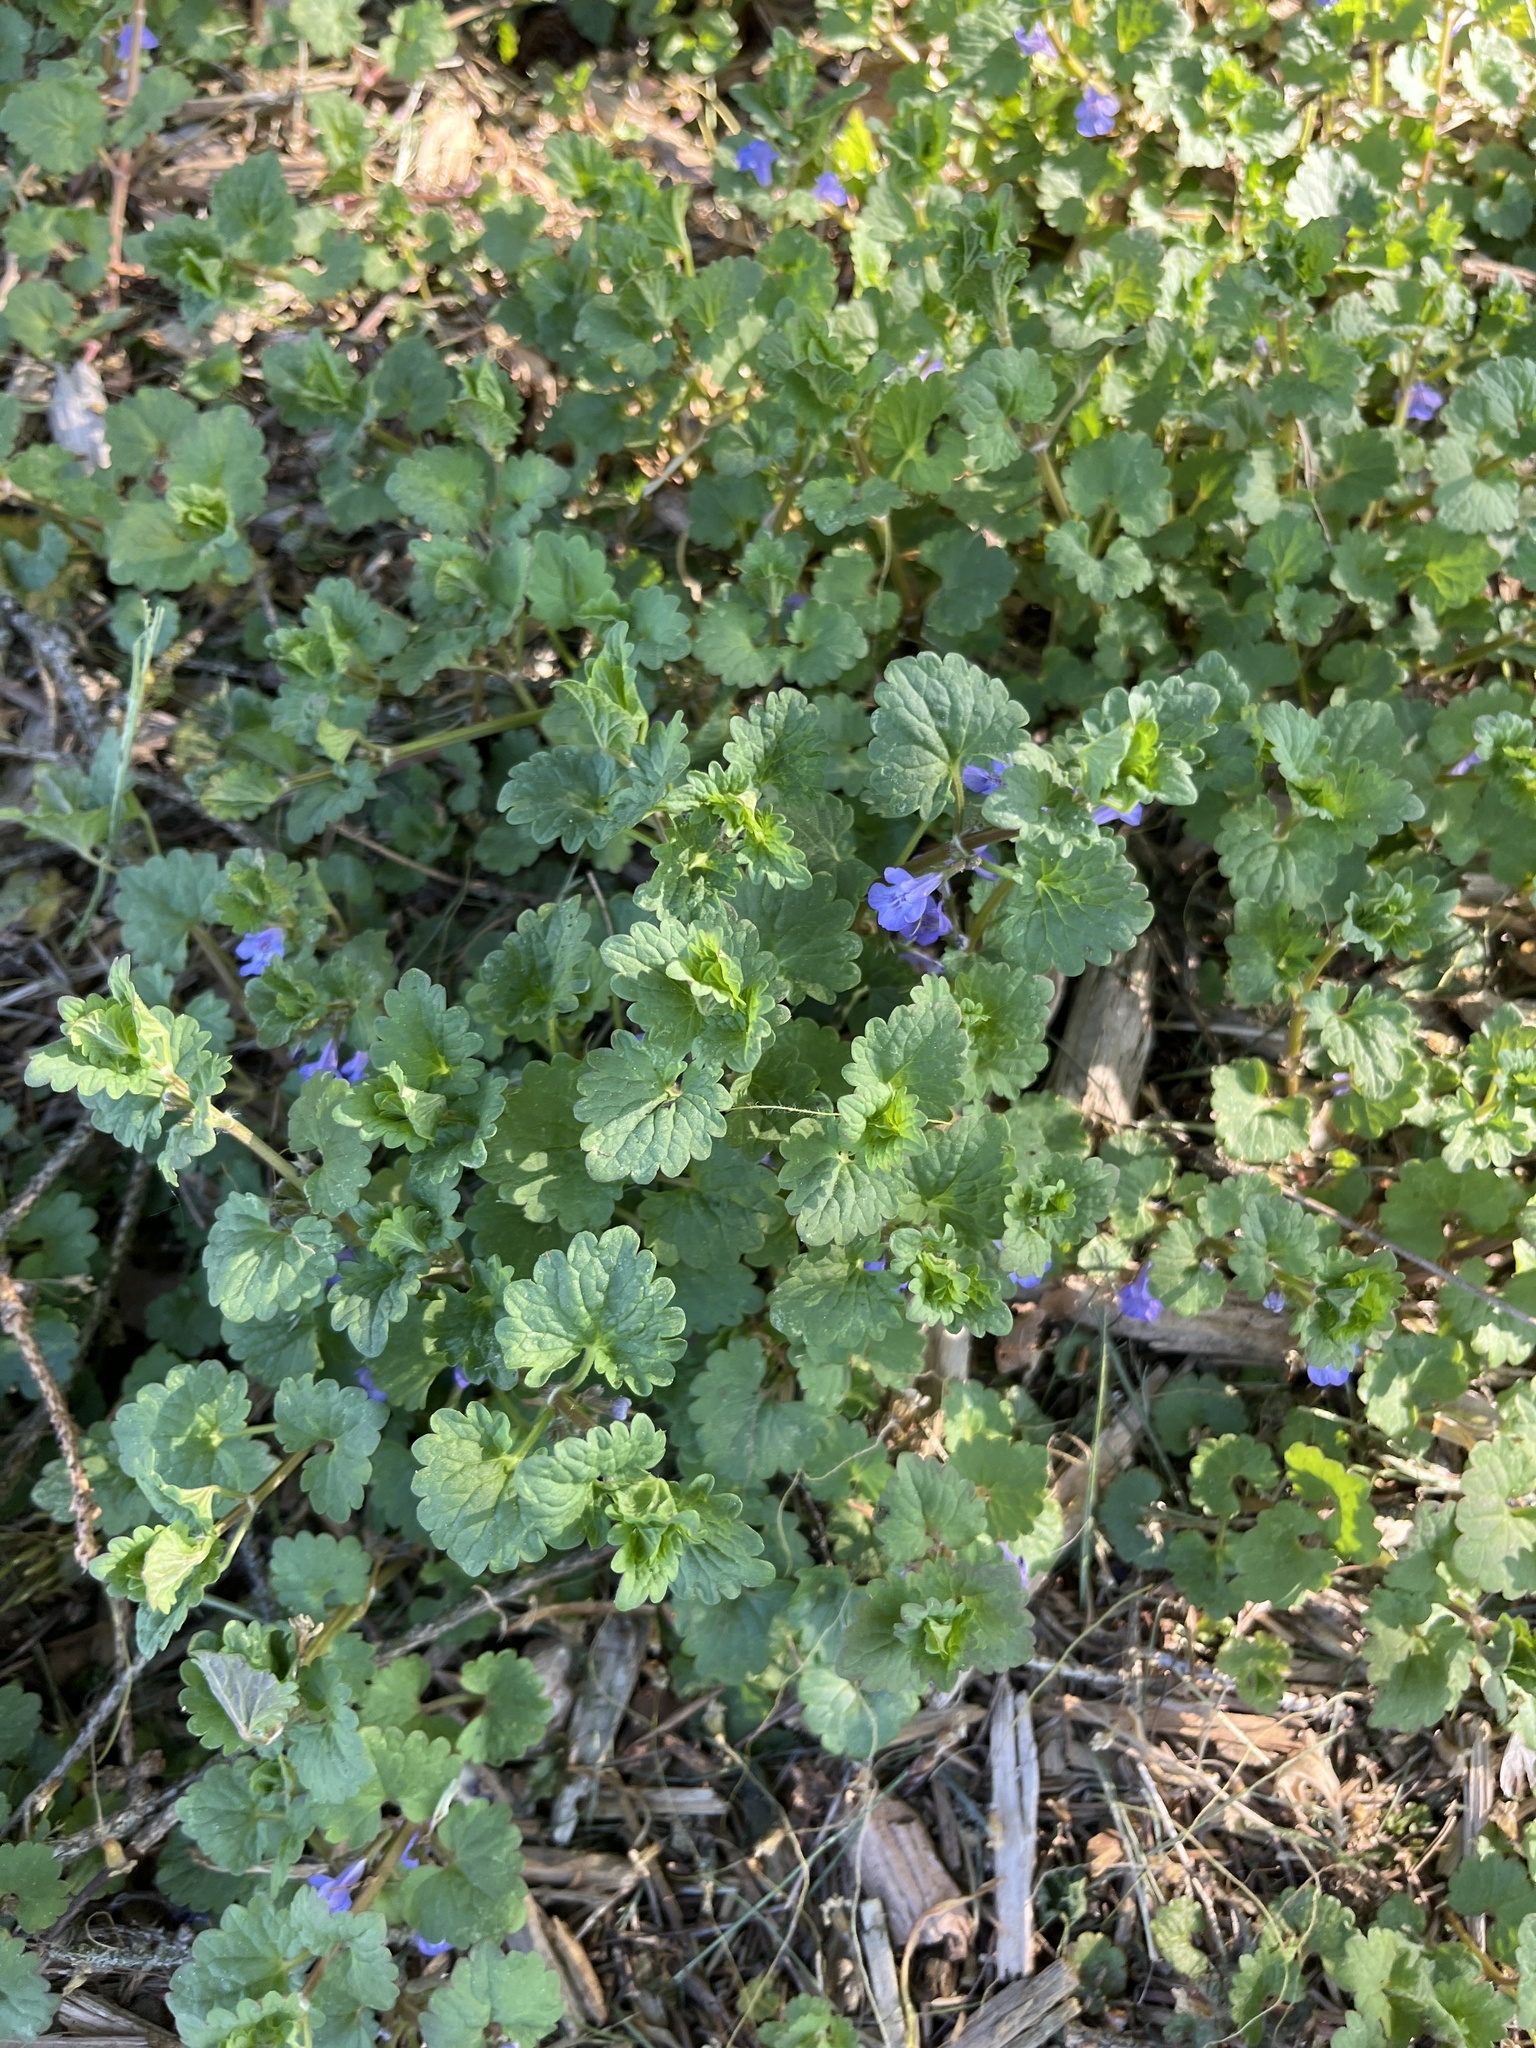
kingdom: Plantae
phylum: Tracheophyta
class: Magnoliopsida
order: Lamiales
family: Lamiaceae
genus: Glechoma
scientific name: Glechoma hederacea
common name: Ground ivy
